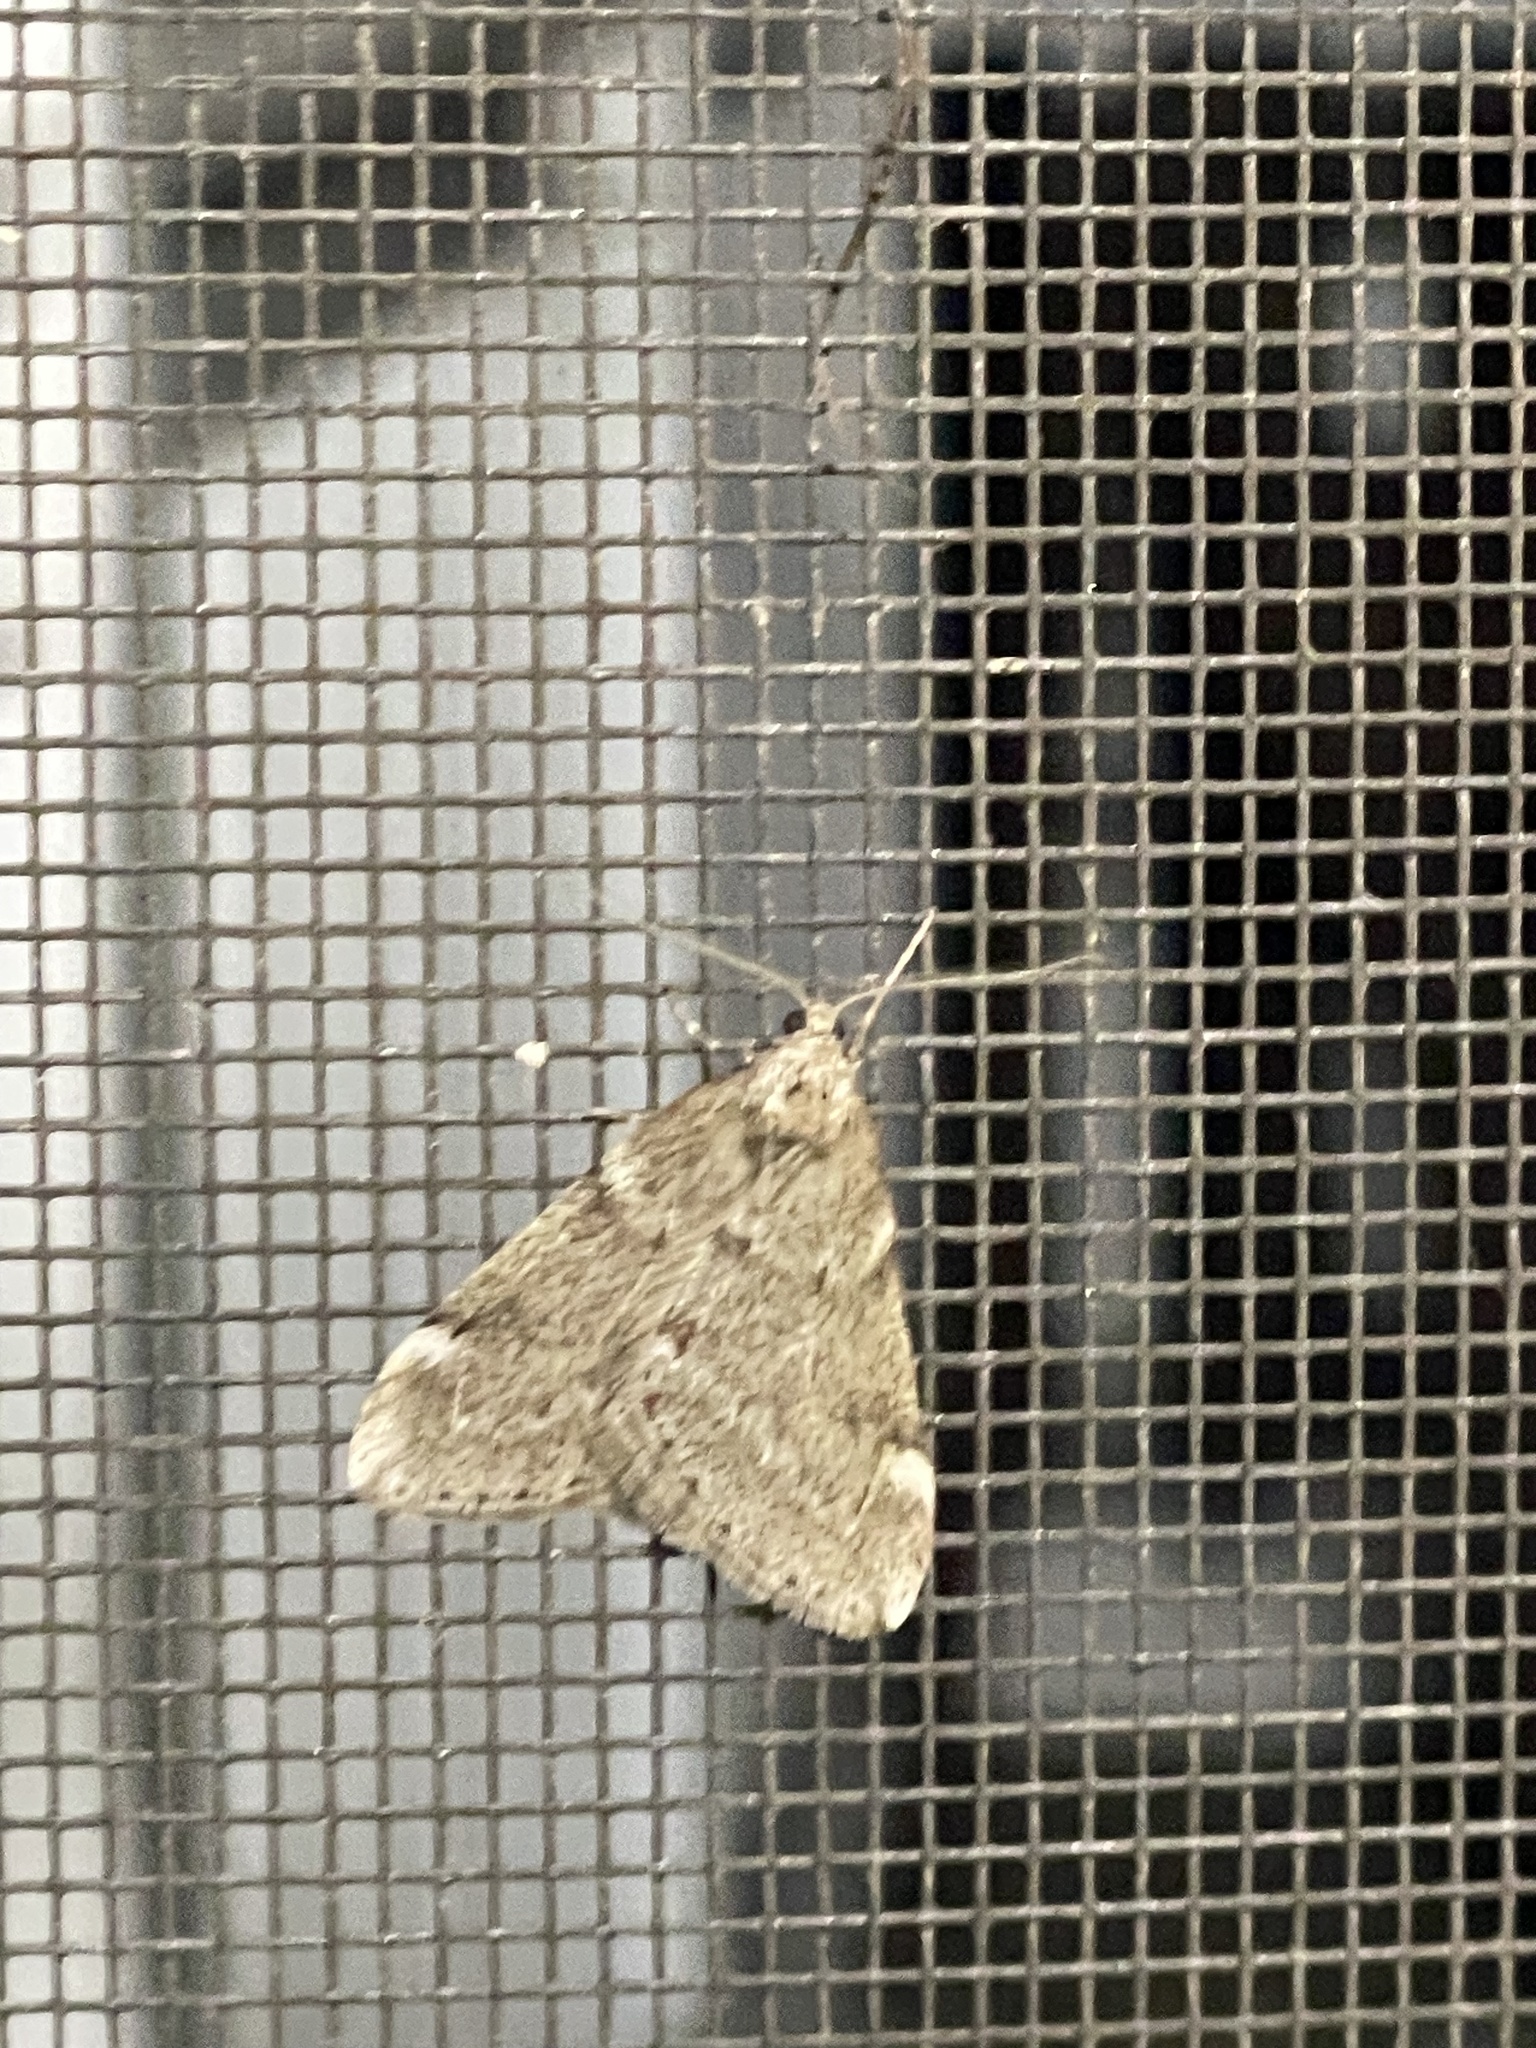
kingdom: Animalia
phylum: Arthropoda
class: Insecta
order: Lepidoptera
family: Geometridae
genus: Alsophila
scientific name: Alsophila pometaria
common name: Fall cankerworm
